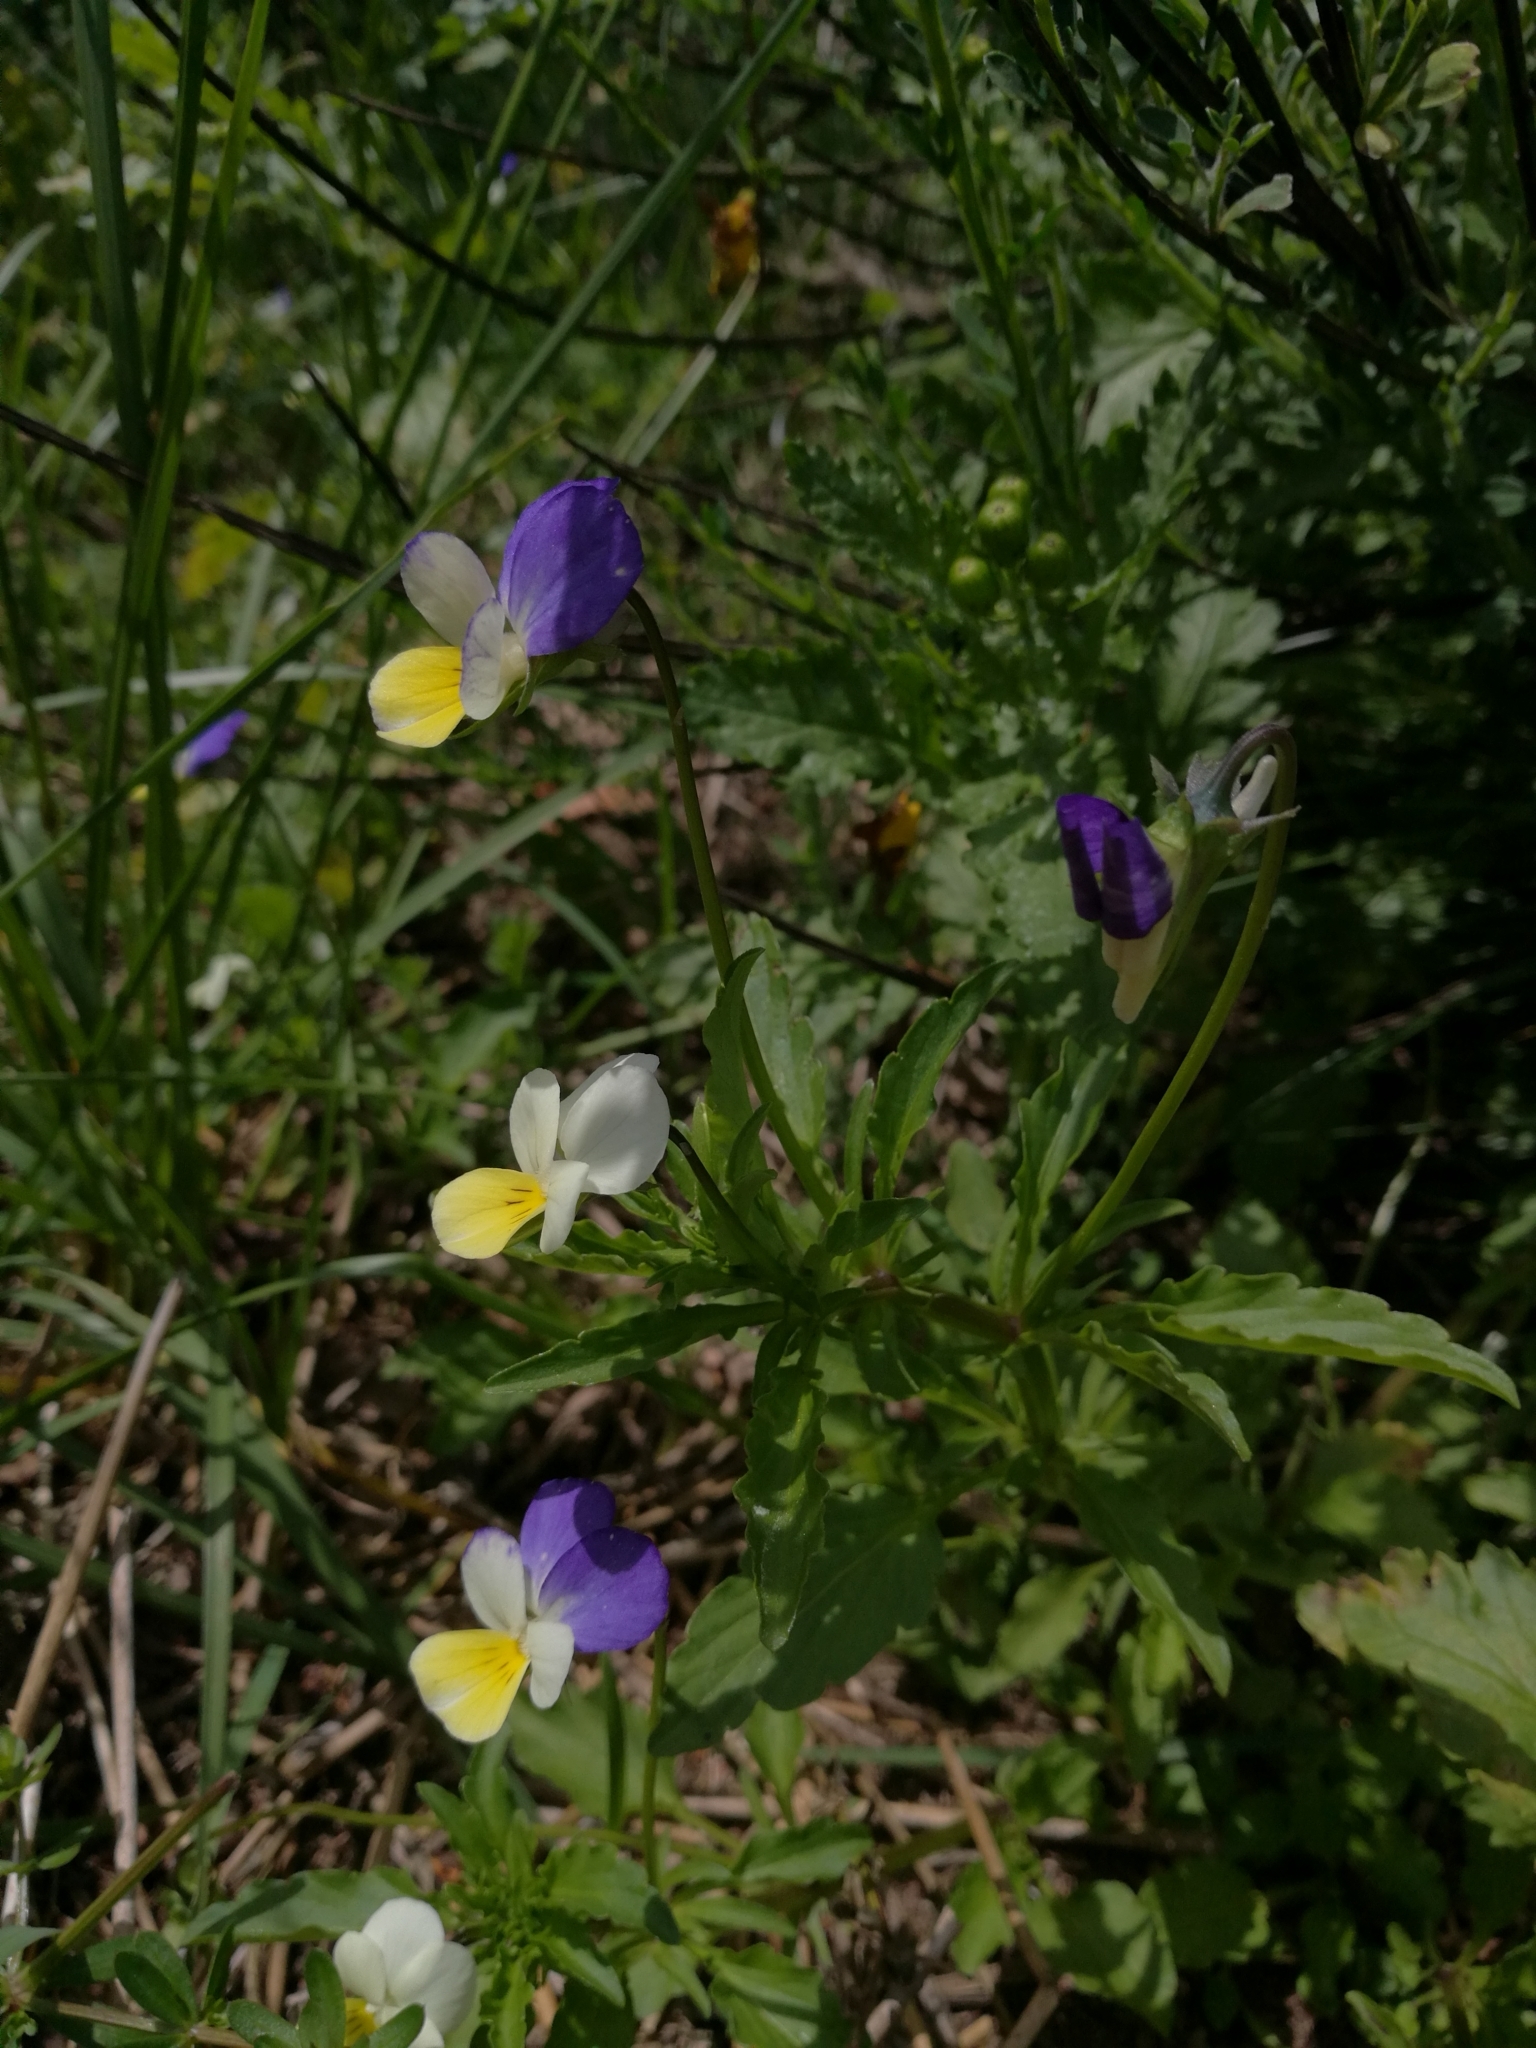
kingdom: Plantae
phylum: Tracheophyta
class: Magnoliopsida
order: Malpighiales
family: Violaceae
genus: Viola
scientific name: Viola tricolor
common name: Pansy
